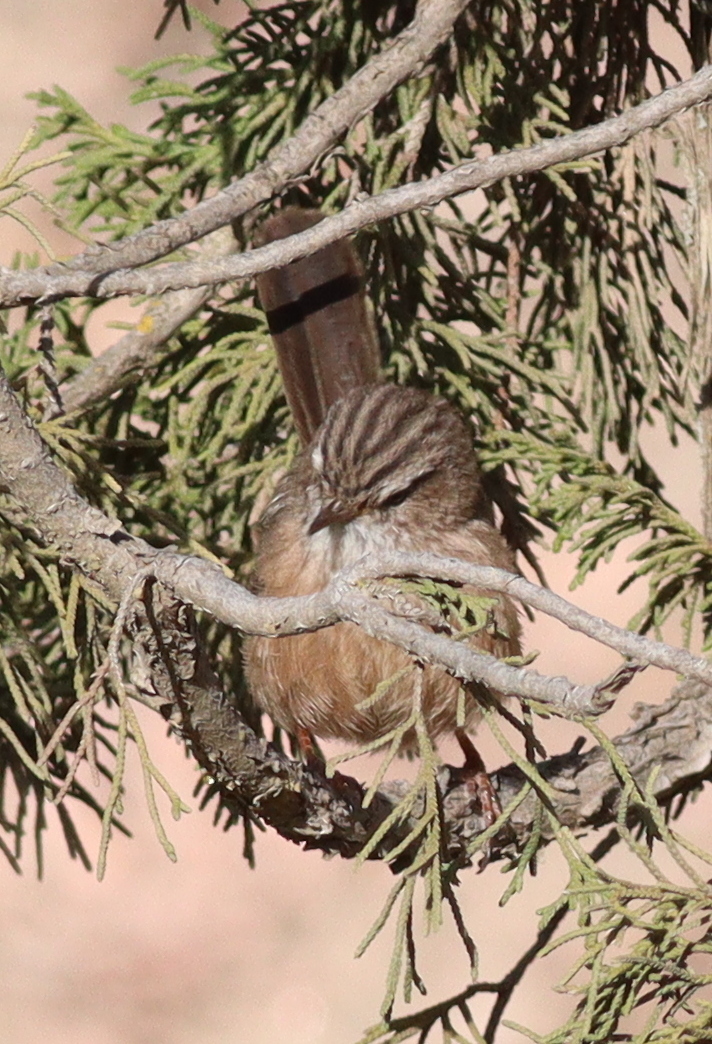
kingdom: Animalia
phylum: Chordata
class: Aves
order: Passeriformes
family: Scotocercidae
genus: Scotocerca
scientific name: Scotocerca inquieta
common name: Scrub warbler
